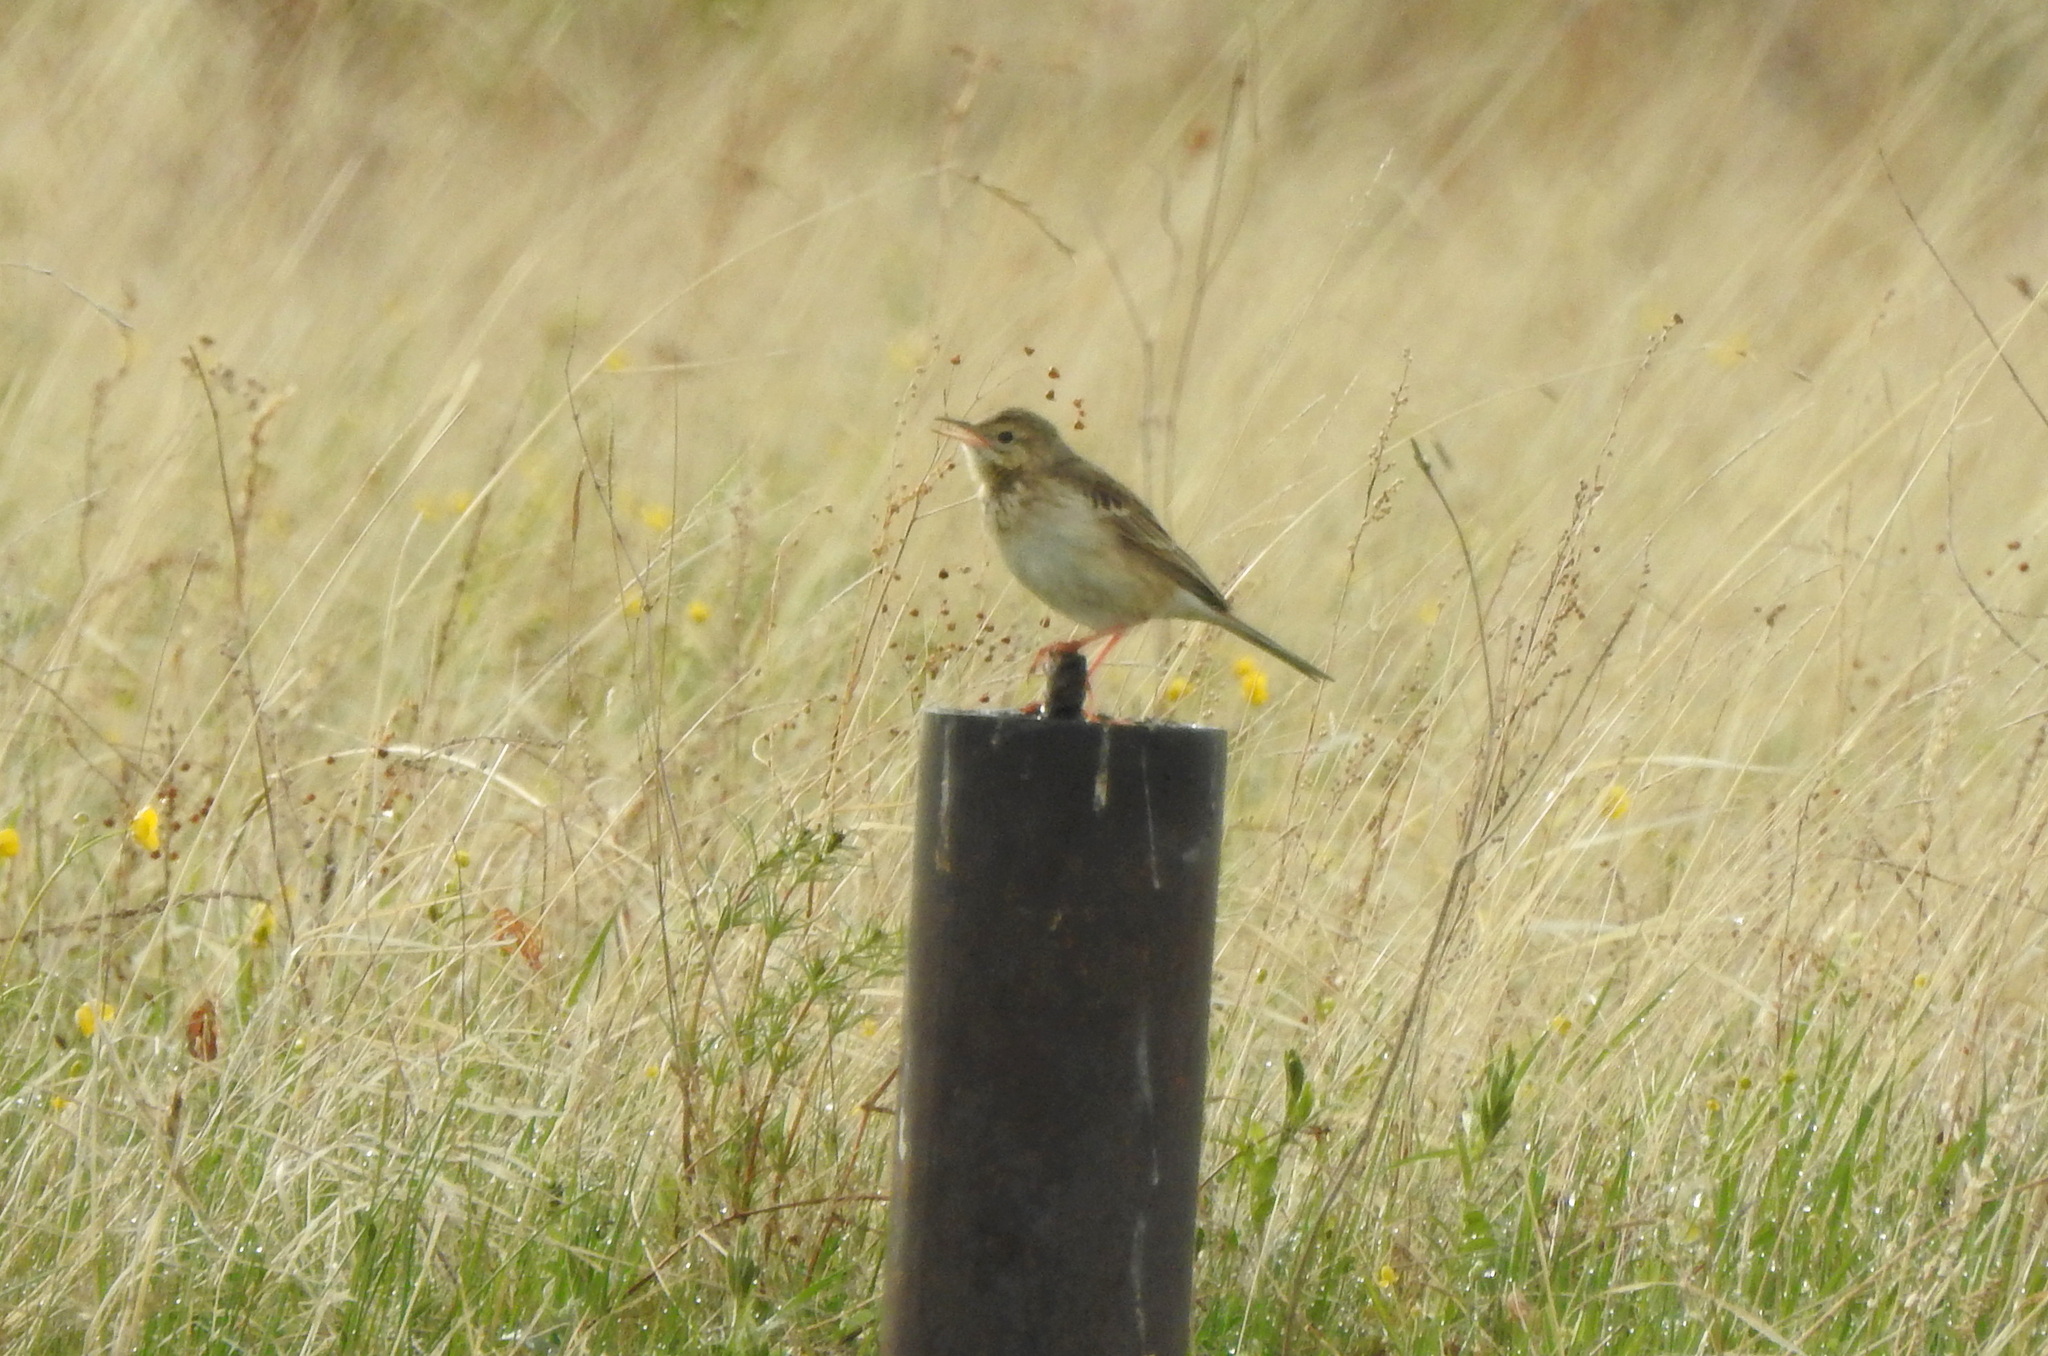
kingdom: Animalia
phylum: Chordata
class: Aves
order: Passeriformes
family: Motacillidae
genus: Anthus
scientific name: Anthus richardi
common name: Richard's pipit
